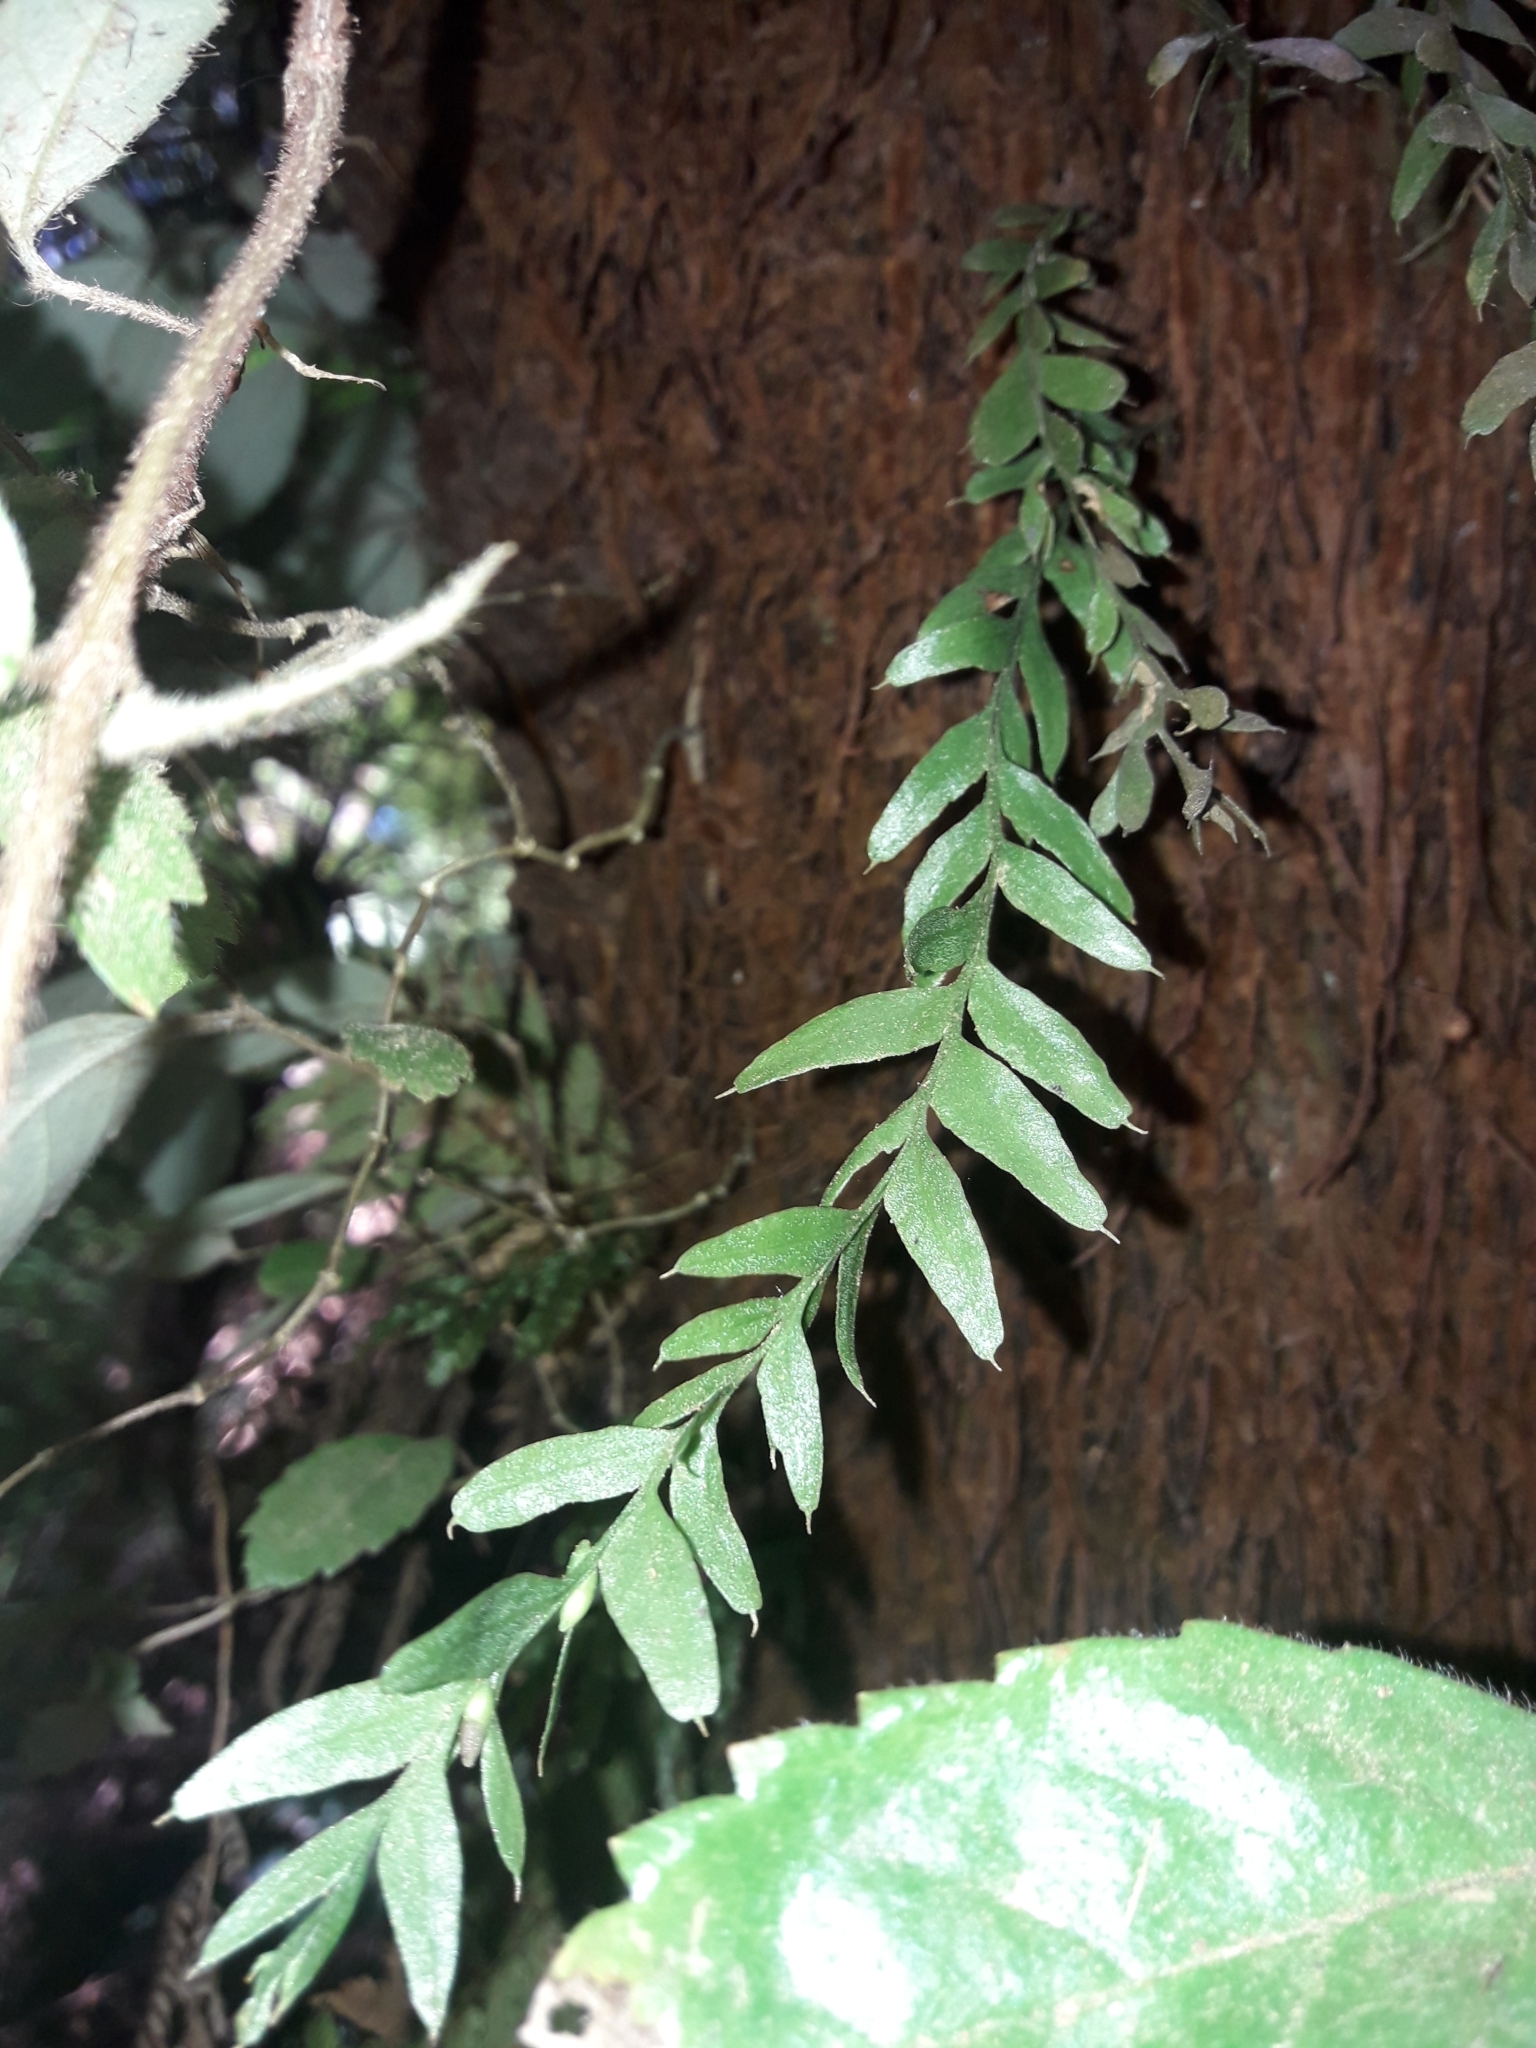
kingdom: Plantae
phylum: Tracheophyta
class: Polypodiopsida
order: Psilotales
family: Psilotaceae
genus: Tmesipteris
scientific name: Tmesipteris obliqua
